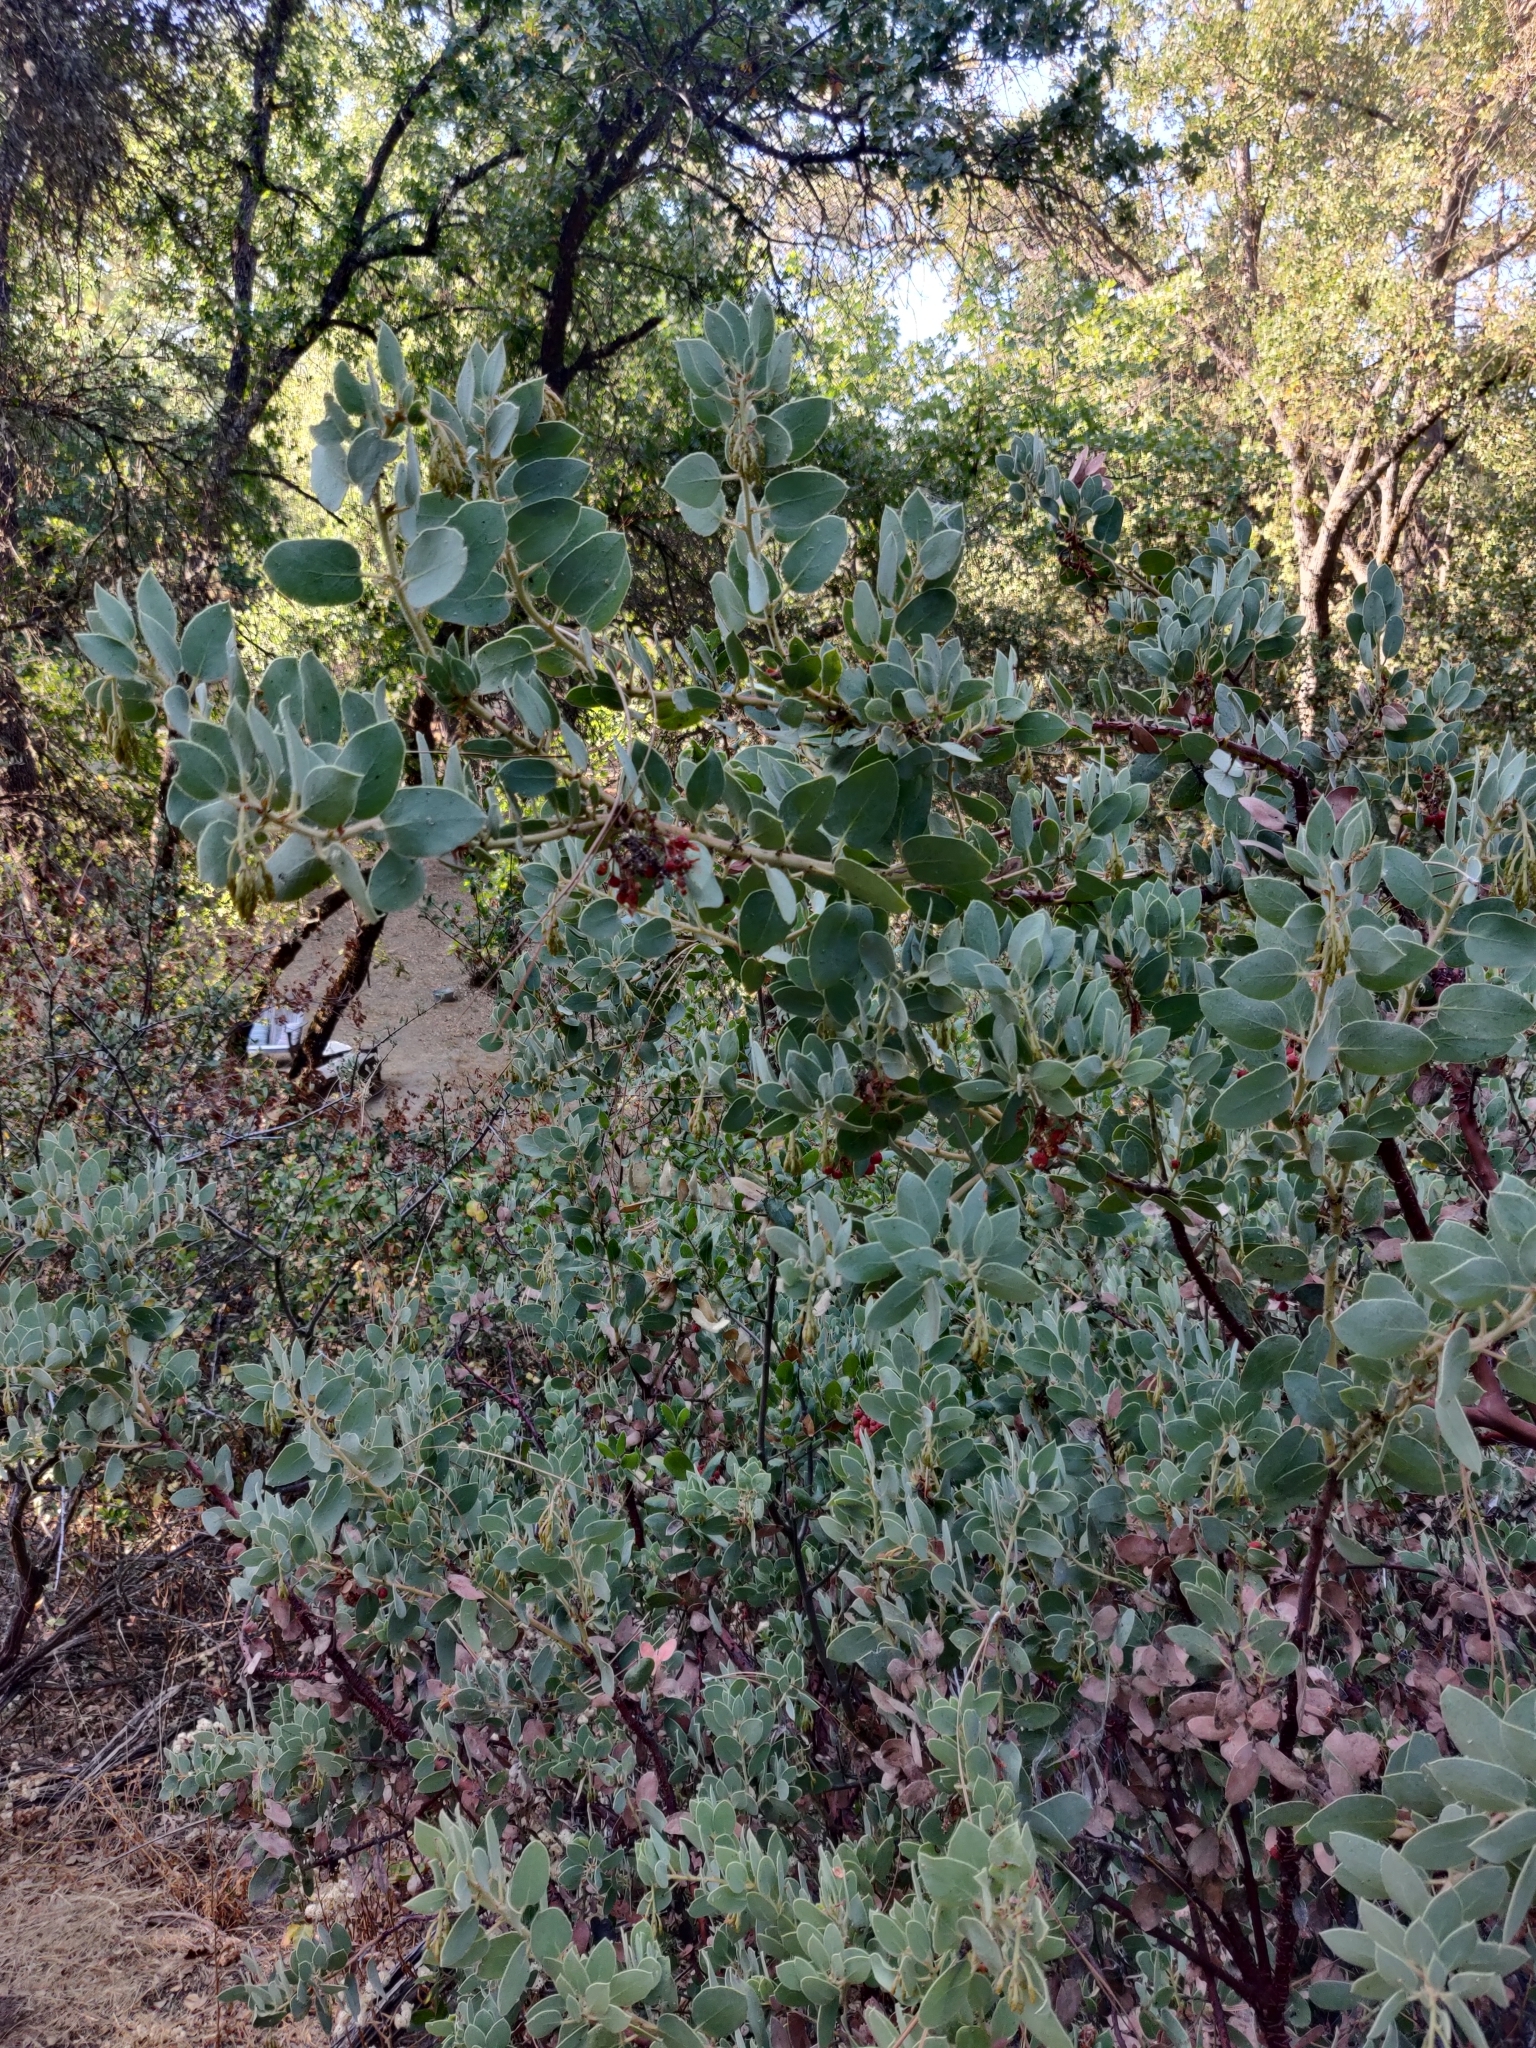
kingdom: Plantae
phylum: Tracheophyta
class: Magnoliopsida
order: Ericales
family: Ericaceae
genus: Arctostaphylos
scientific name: Arctostaphylos viscida
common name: White-leaf manzanita
